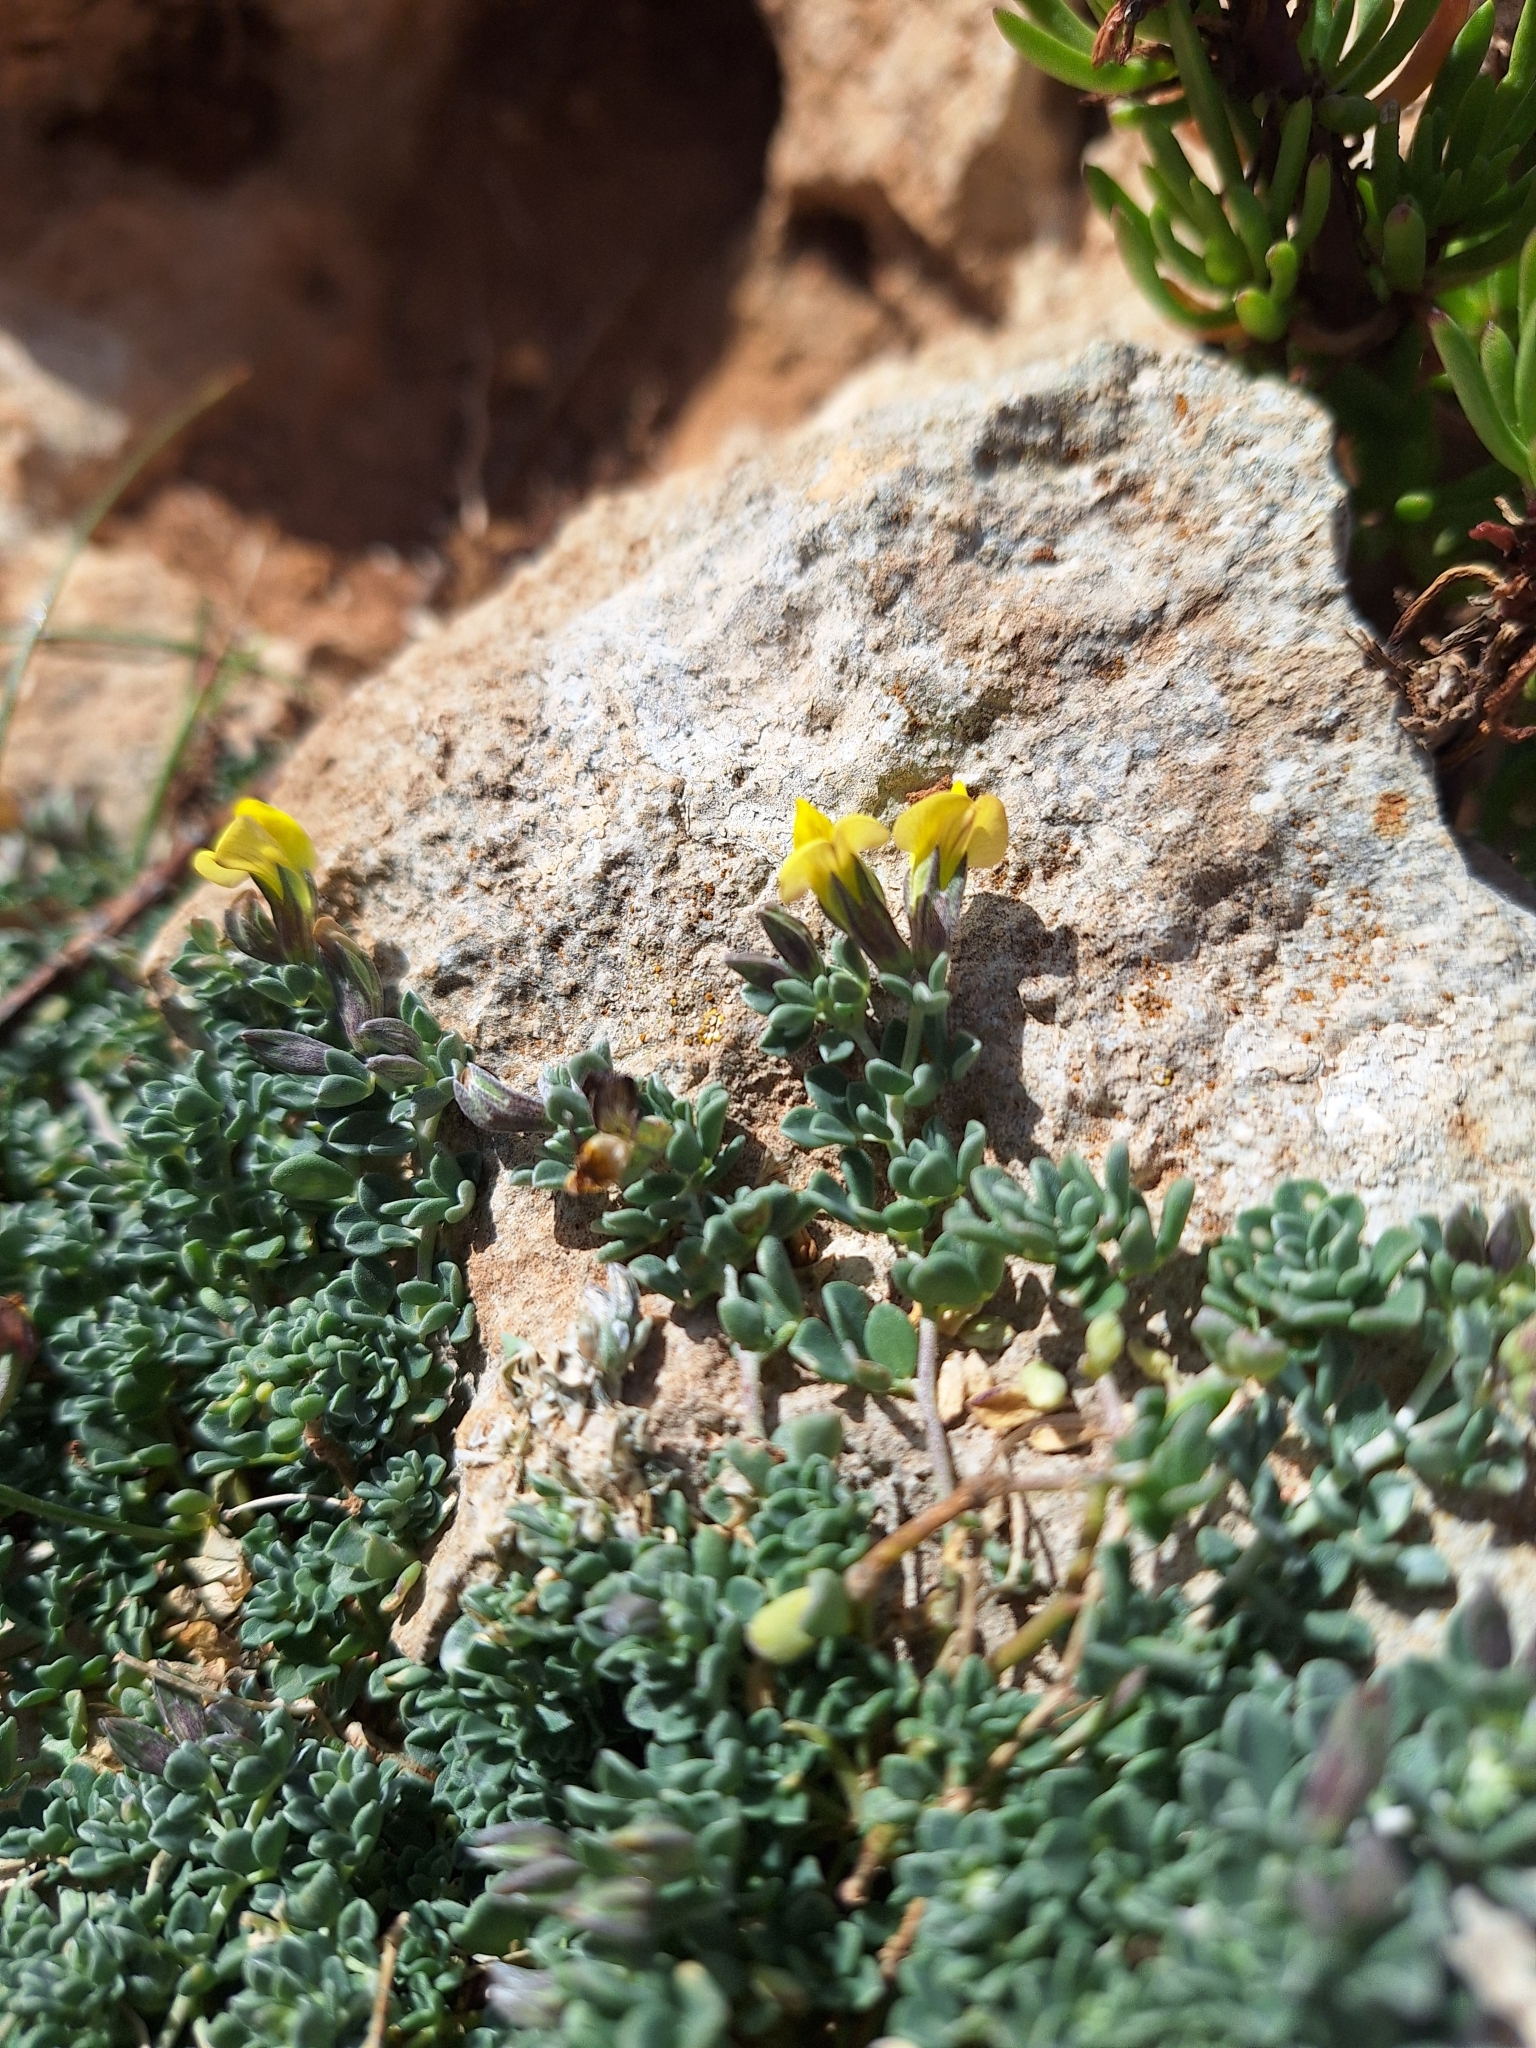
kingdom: Plantae
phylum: Tracheophyta
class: Magnoliopsida
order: Fabales
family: Fabaceae
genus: Lotus
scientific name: Lotus cytisoides
